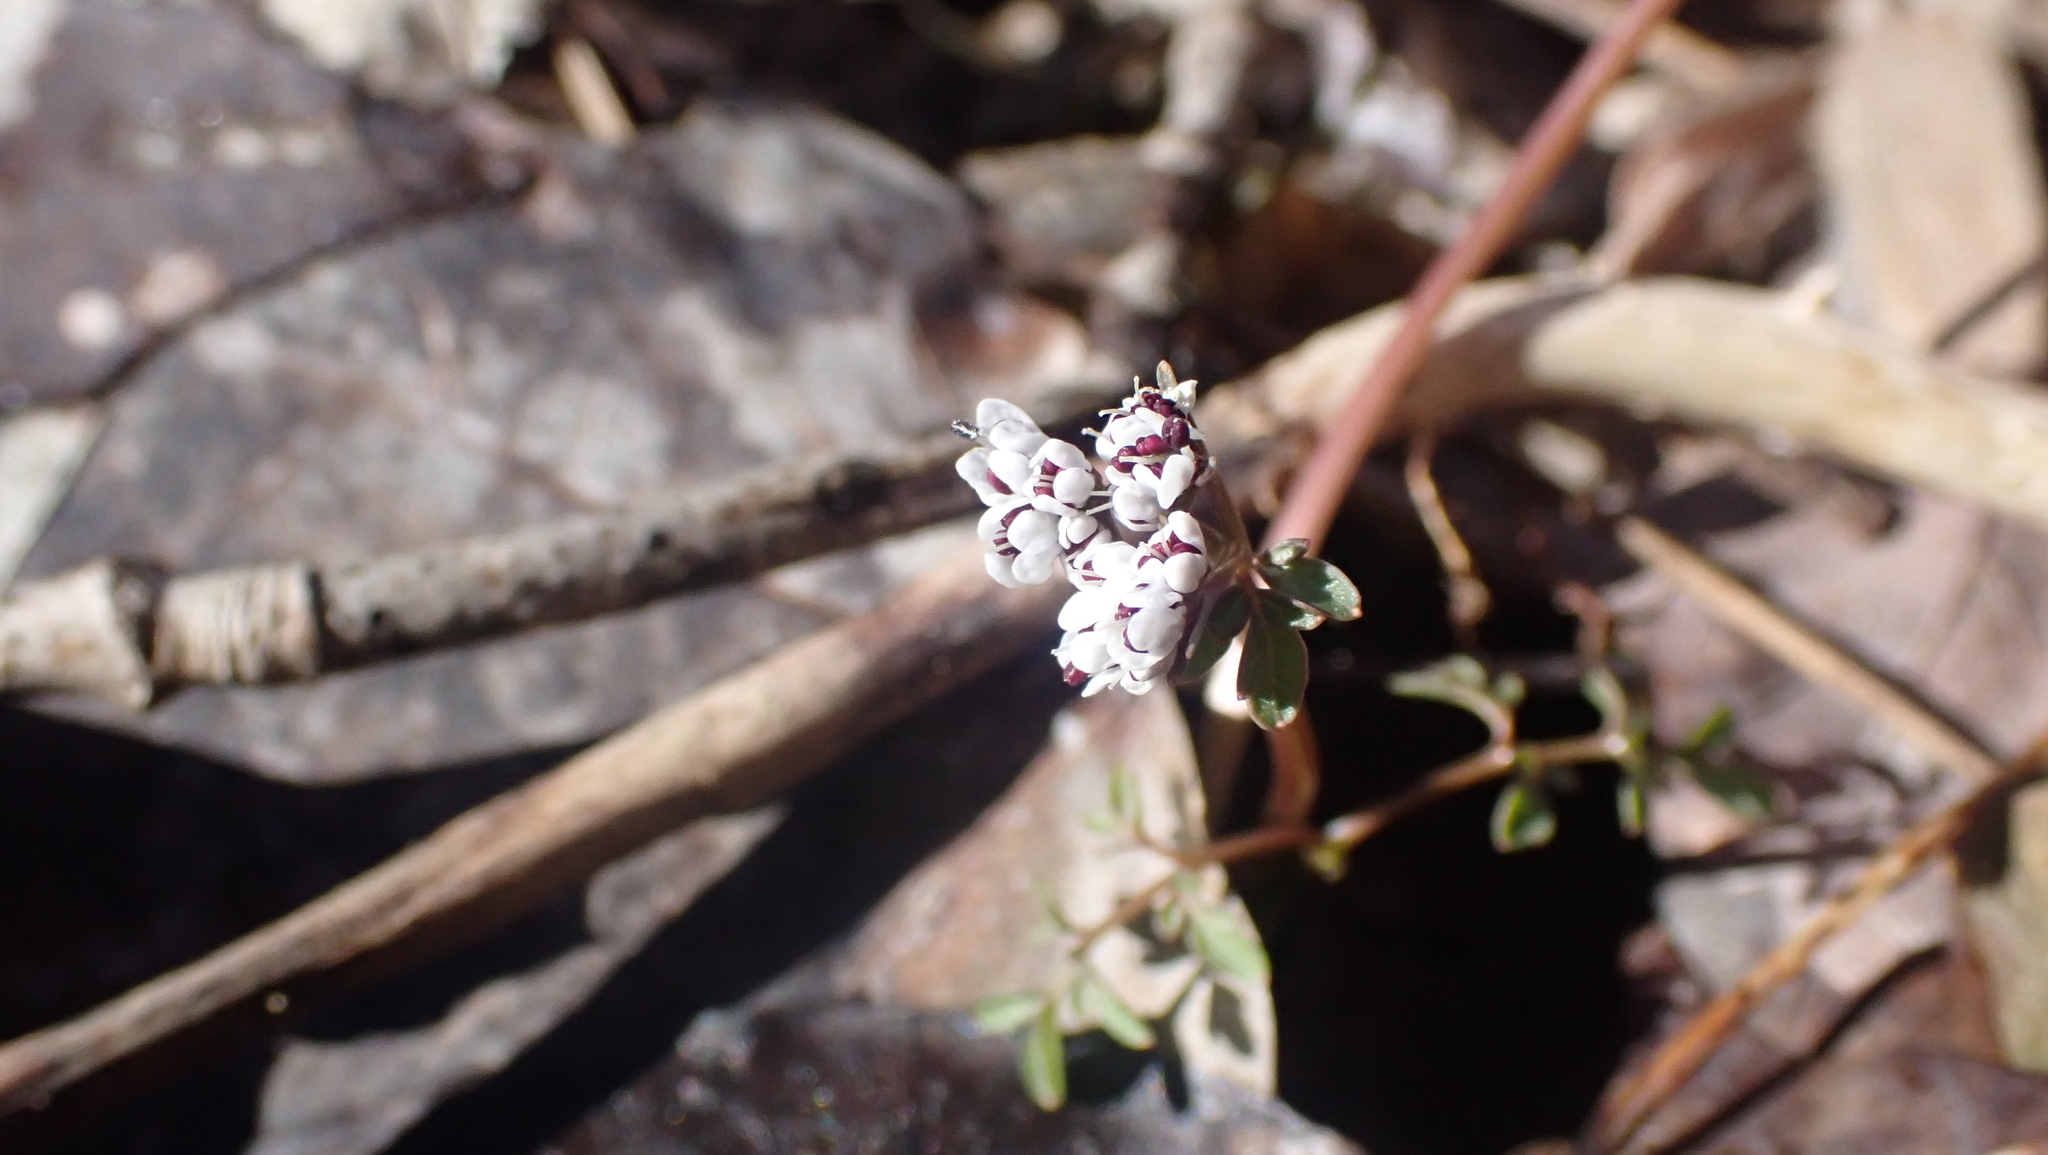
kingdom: Plantae
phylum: Tracheophyta
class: Magnoliopsida
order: Apiales
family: Apiaceae
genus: Erigenia
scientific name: Erigenia bulbosa
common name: Pepper-and-salt
